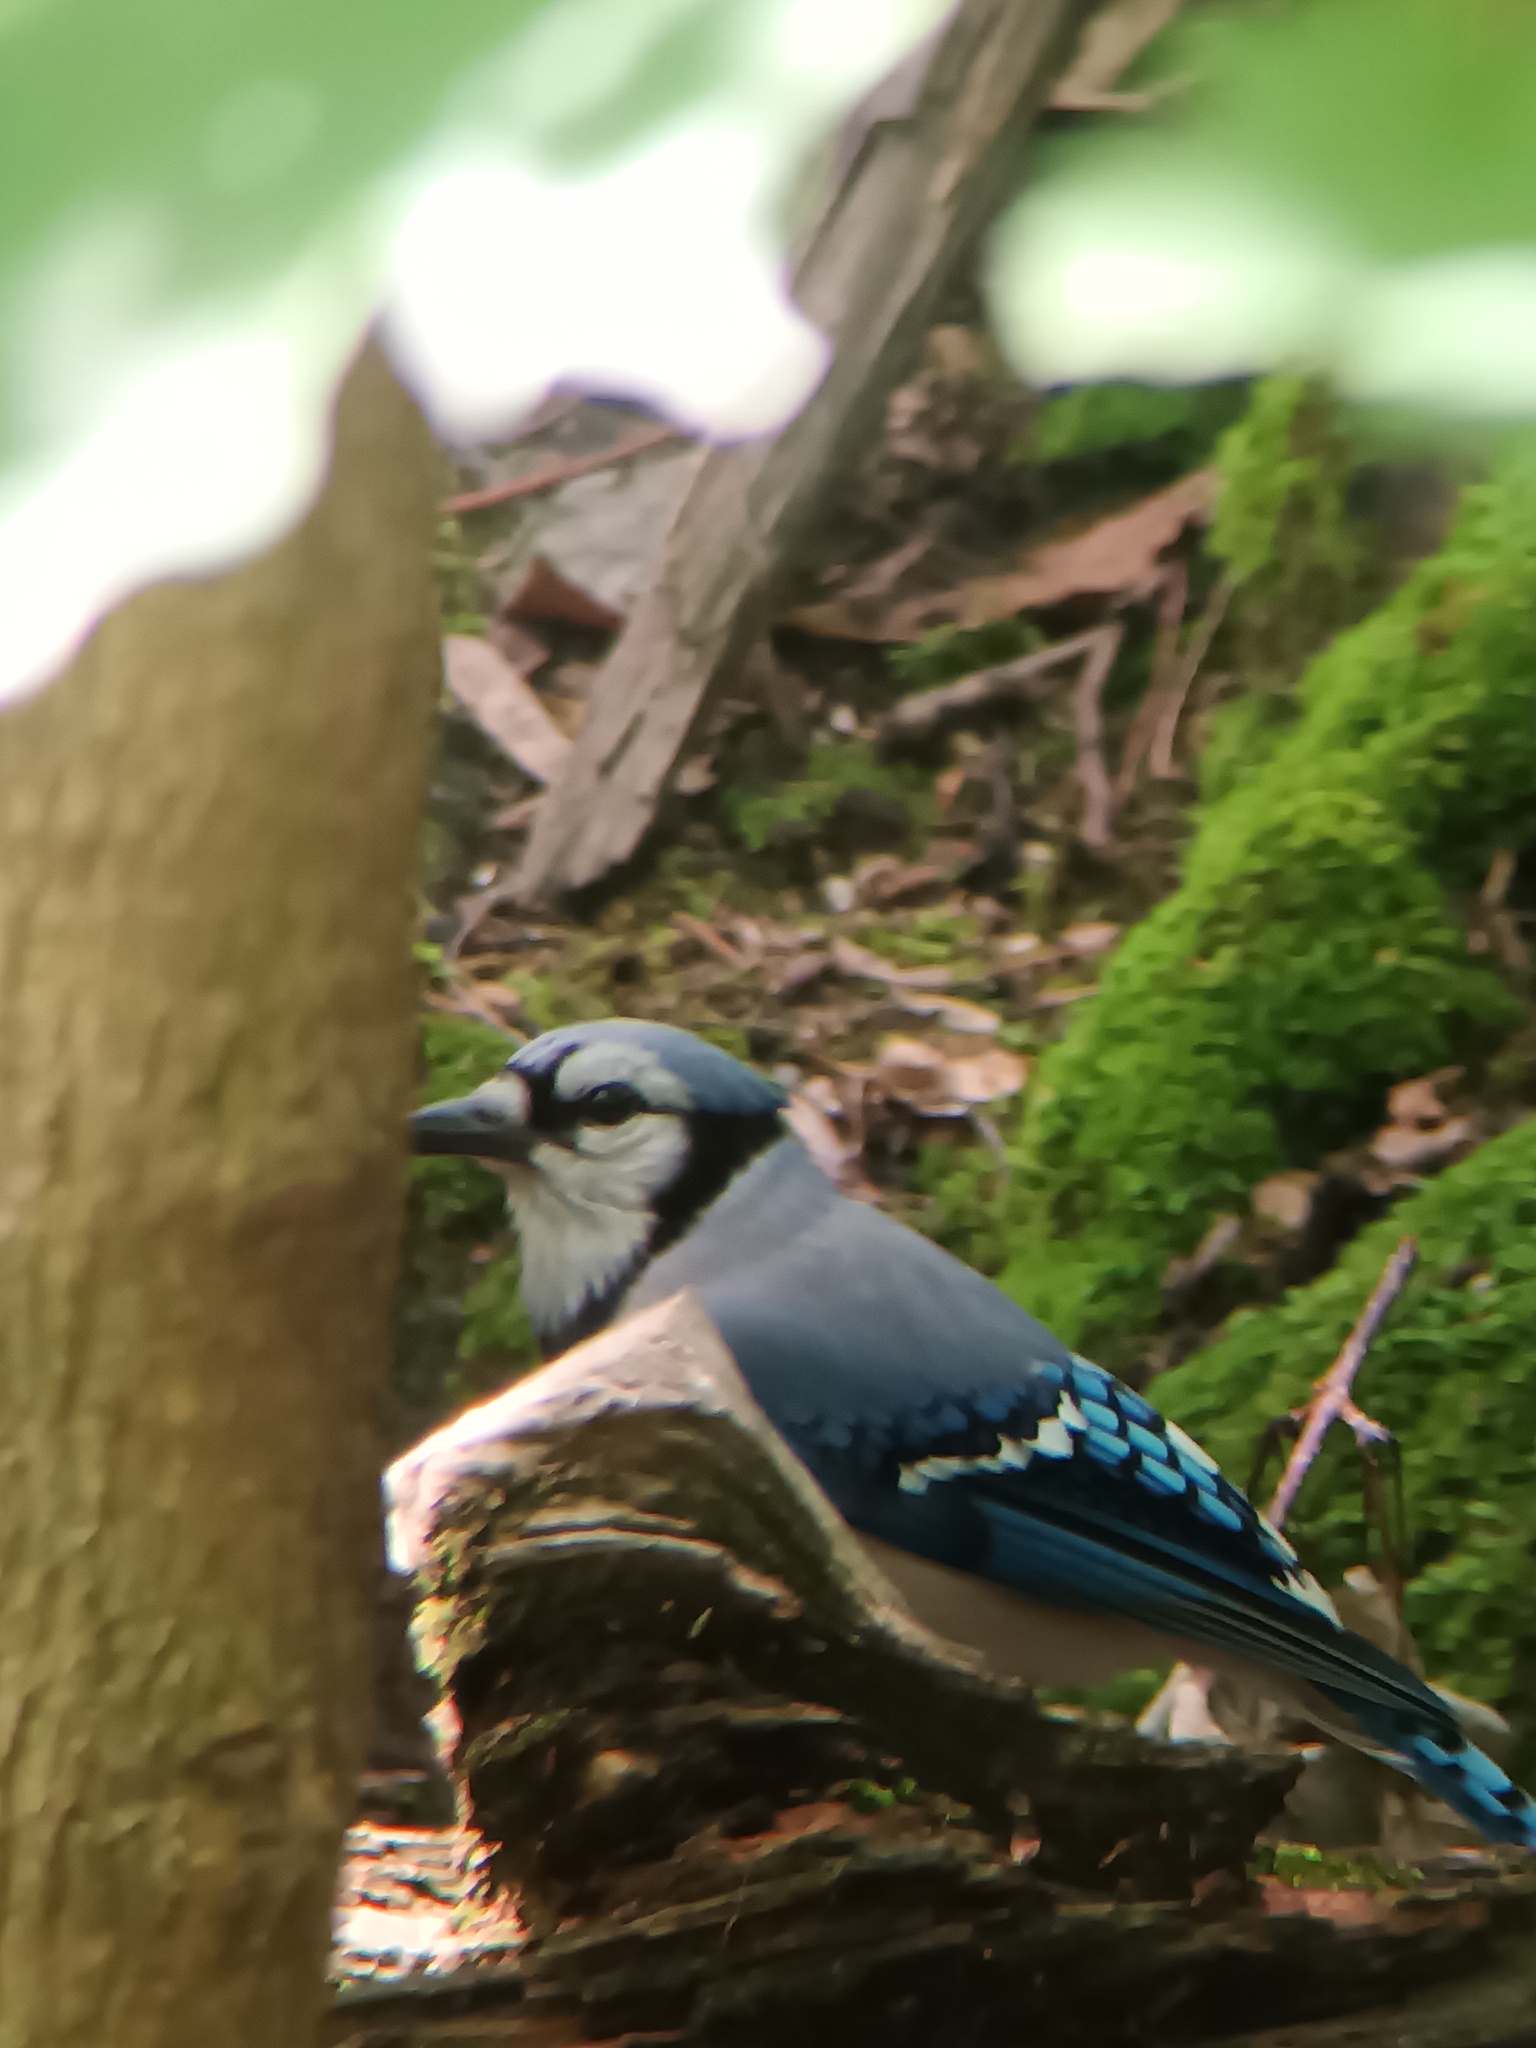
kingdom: Animalia
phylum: Chordata
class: Aves
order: Passeriformes
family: Corvidae
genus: Cyanocitta
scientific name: Cyanocitta cristata
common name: Blue jay
